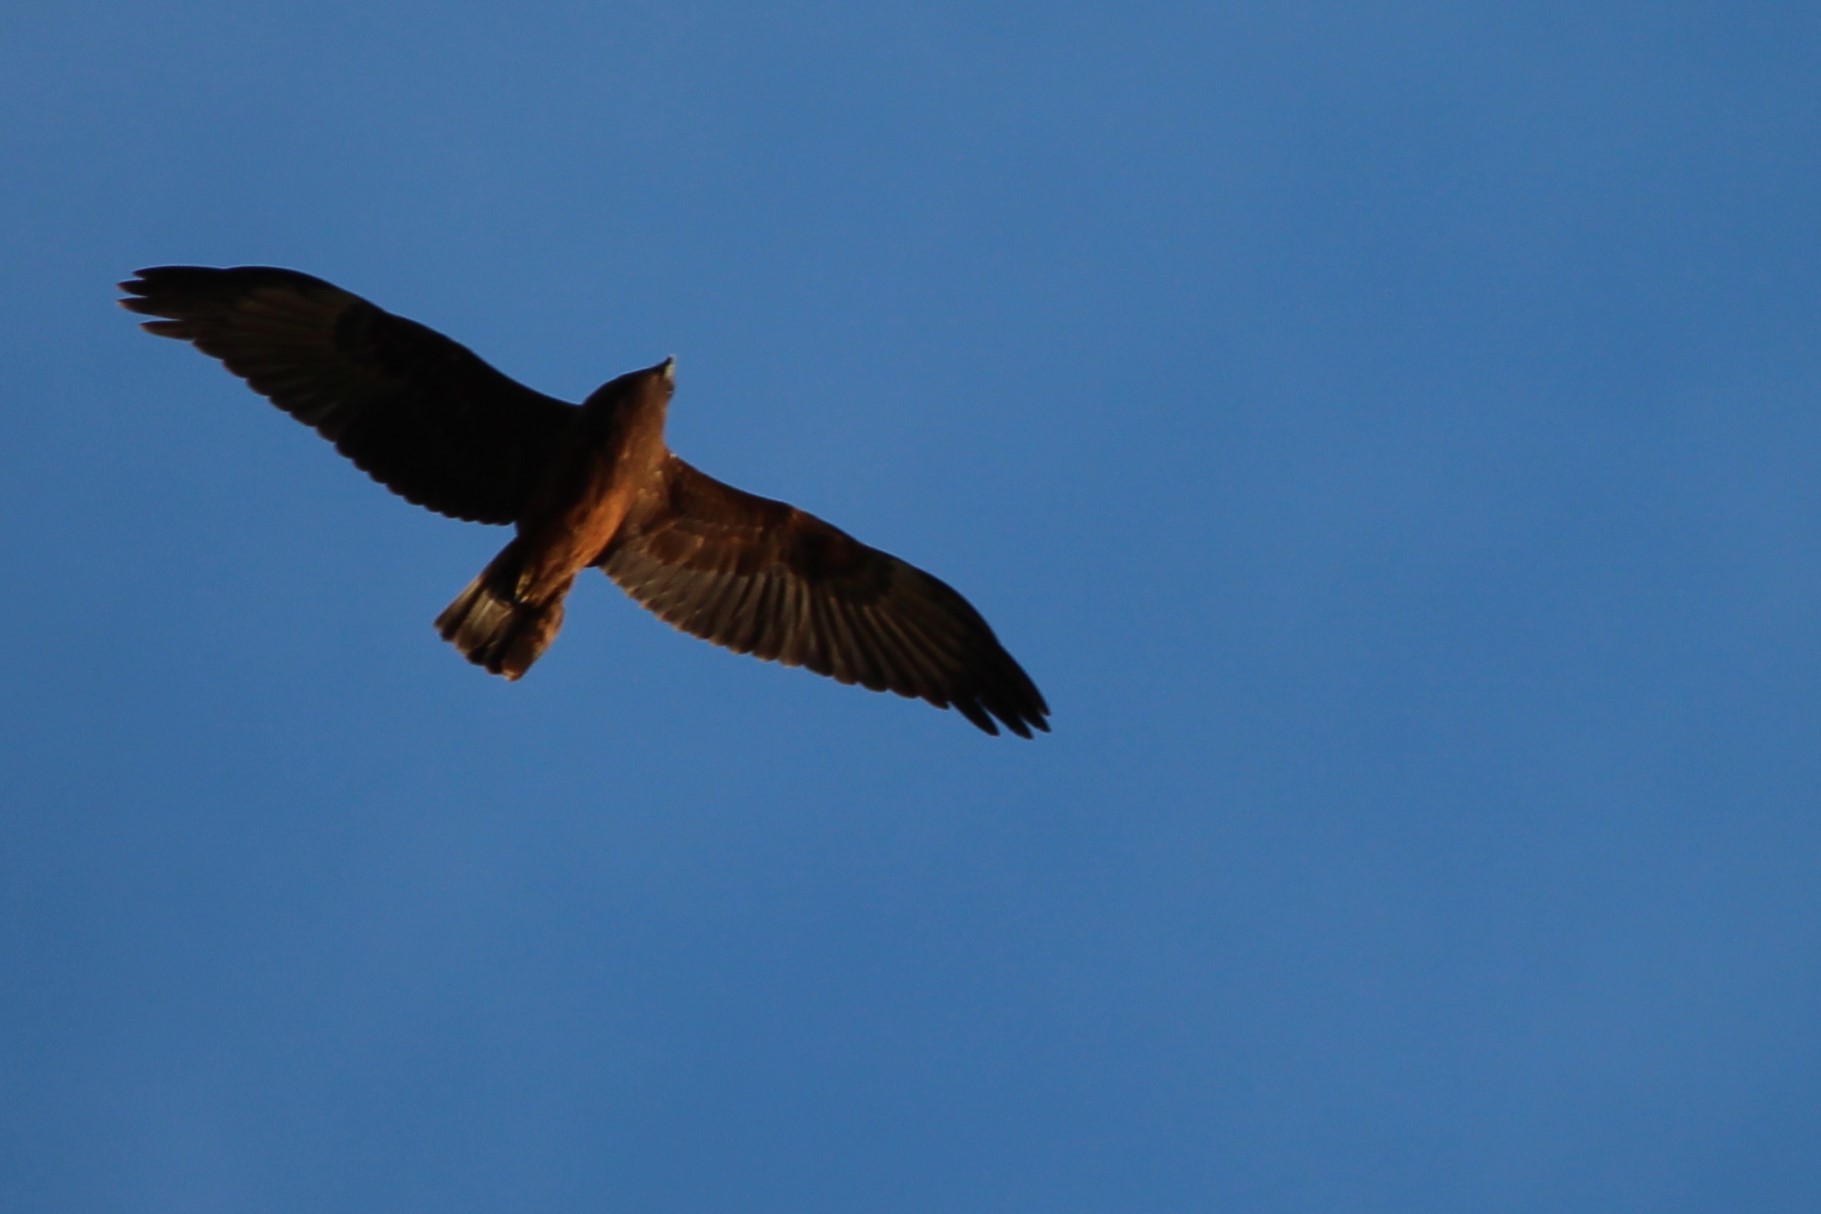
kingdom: Animalia
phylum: Chordata
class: Aves
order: Accipitriformes
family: Accipitridae
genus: Circus
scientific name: Circus approximans
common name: Swamp harrier
